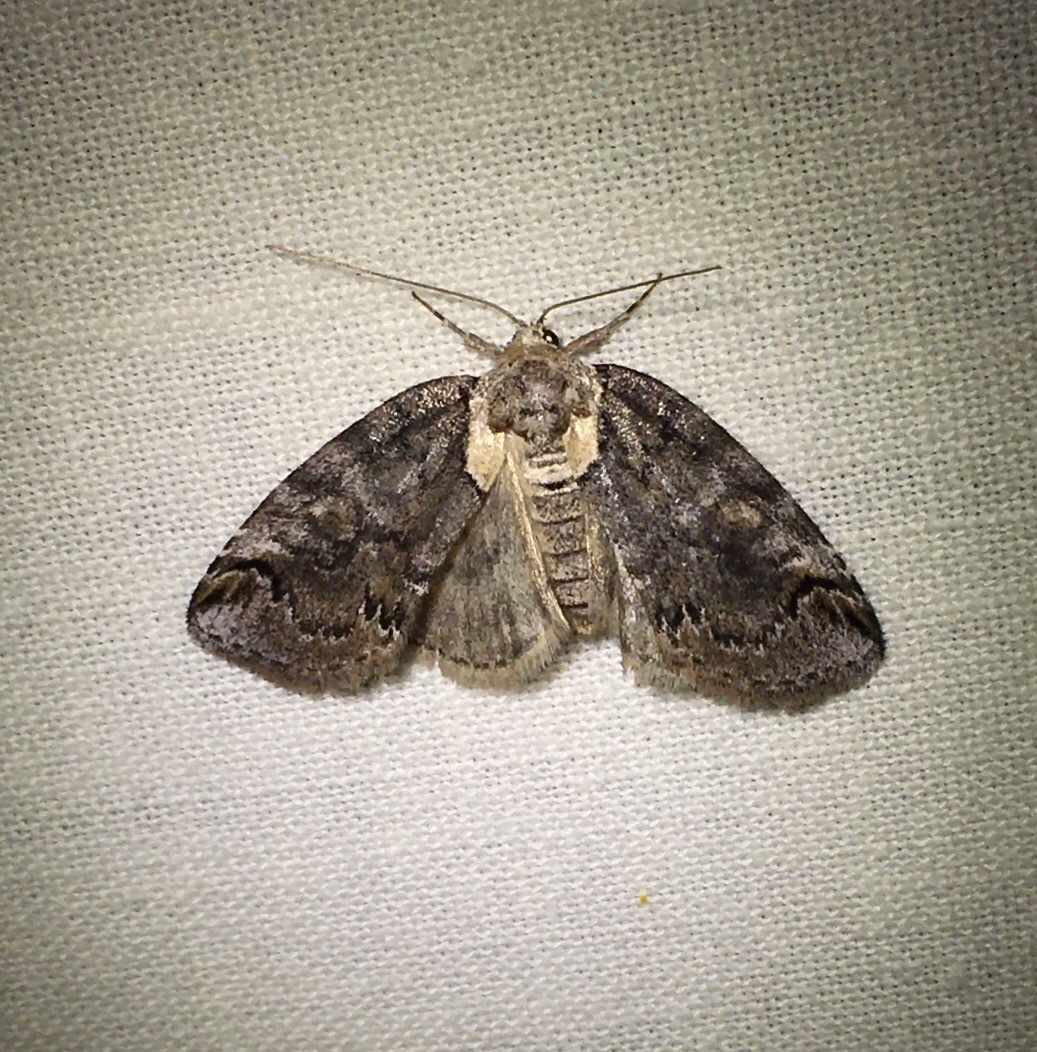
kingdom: Animalia
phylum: Arthropoda
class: Insecta
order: Lepidoptera
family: Nolidae
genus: Baileya
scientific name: Baileya ophthalmica
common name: Eyed baileya moth
